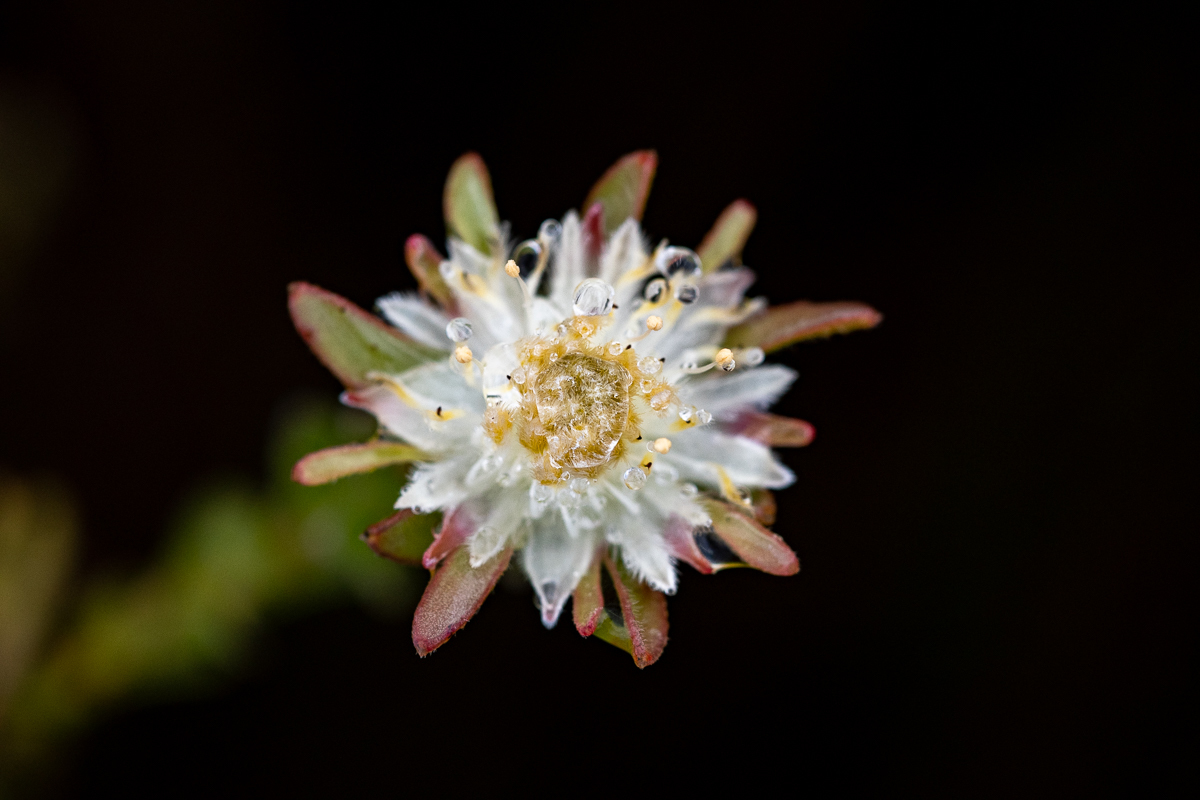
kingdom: Plantae
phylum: Tracheophyta
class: Magnoliopsida
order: Proteales
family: Proteaceae
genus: Diastella
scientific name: Diastella fraterna
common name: Palmiet silkypuff
